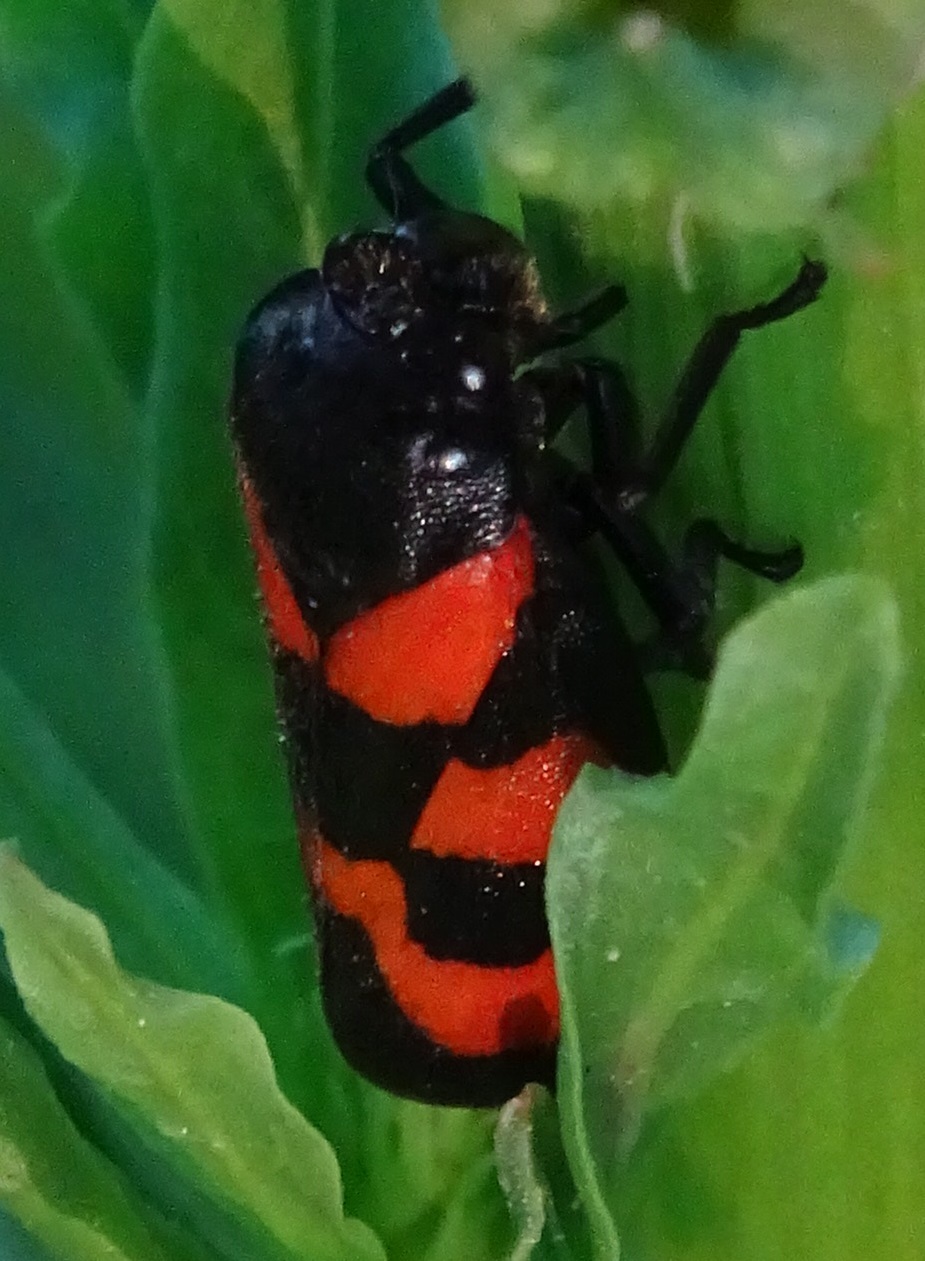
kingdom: Animalia
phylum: Arthropoda
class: Insecta
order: Hemiptera
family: Cercopidae
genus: Cercopis
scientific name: Cercopis vulnerata
